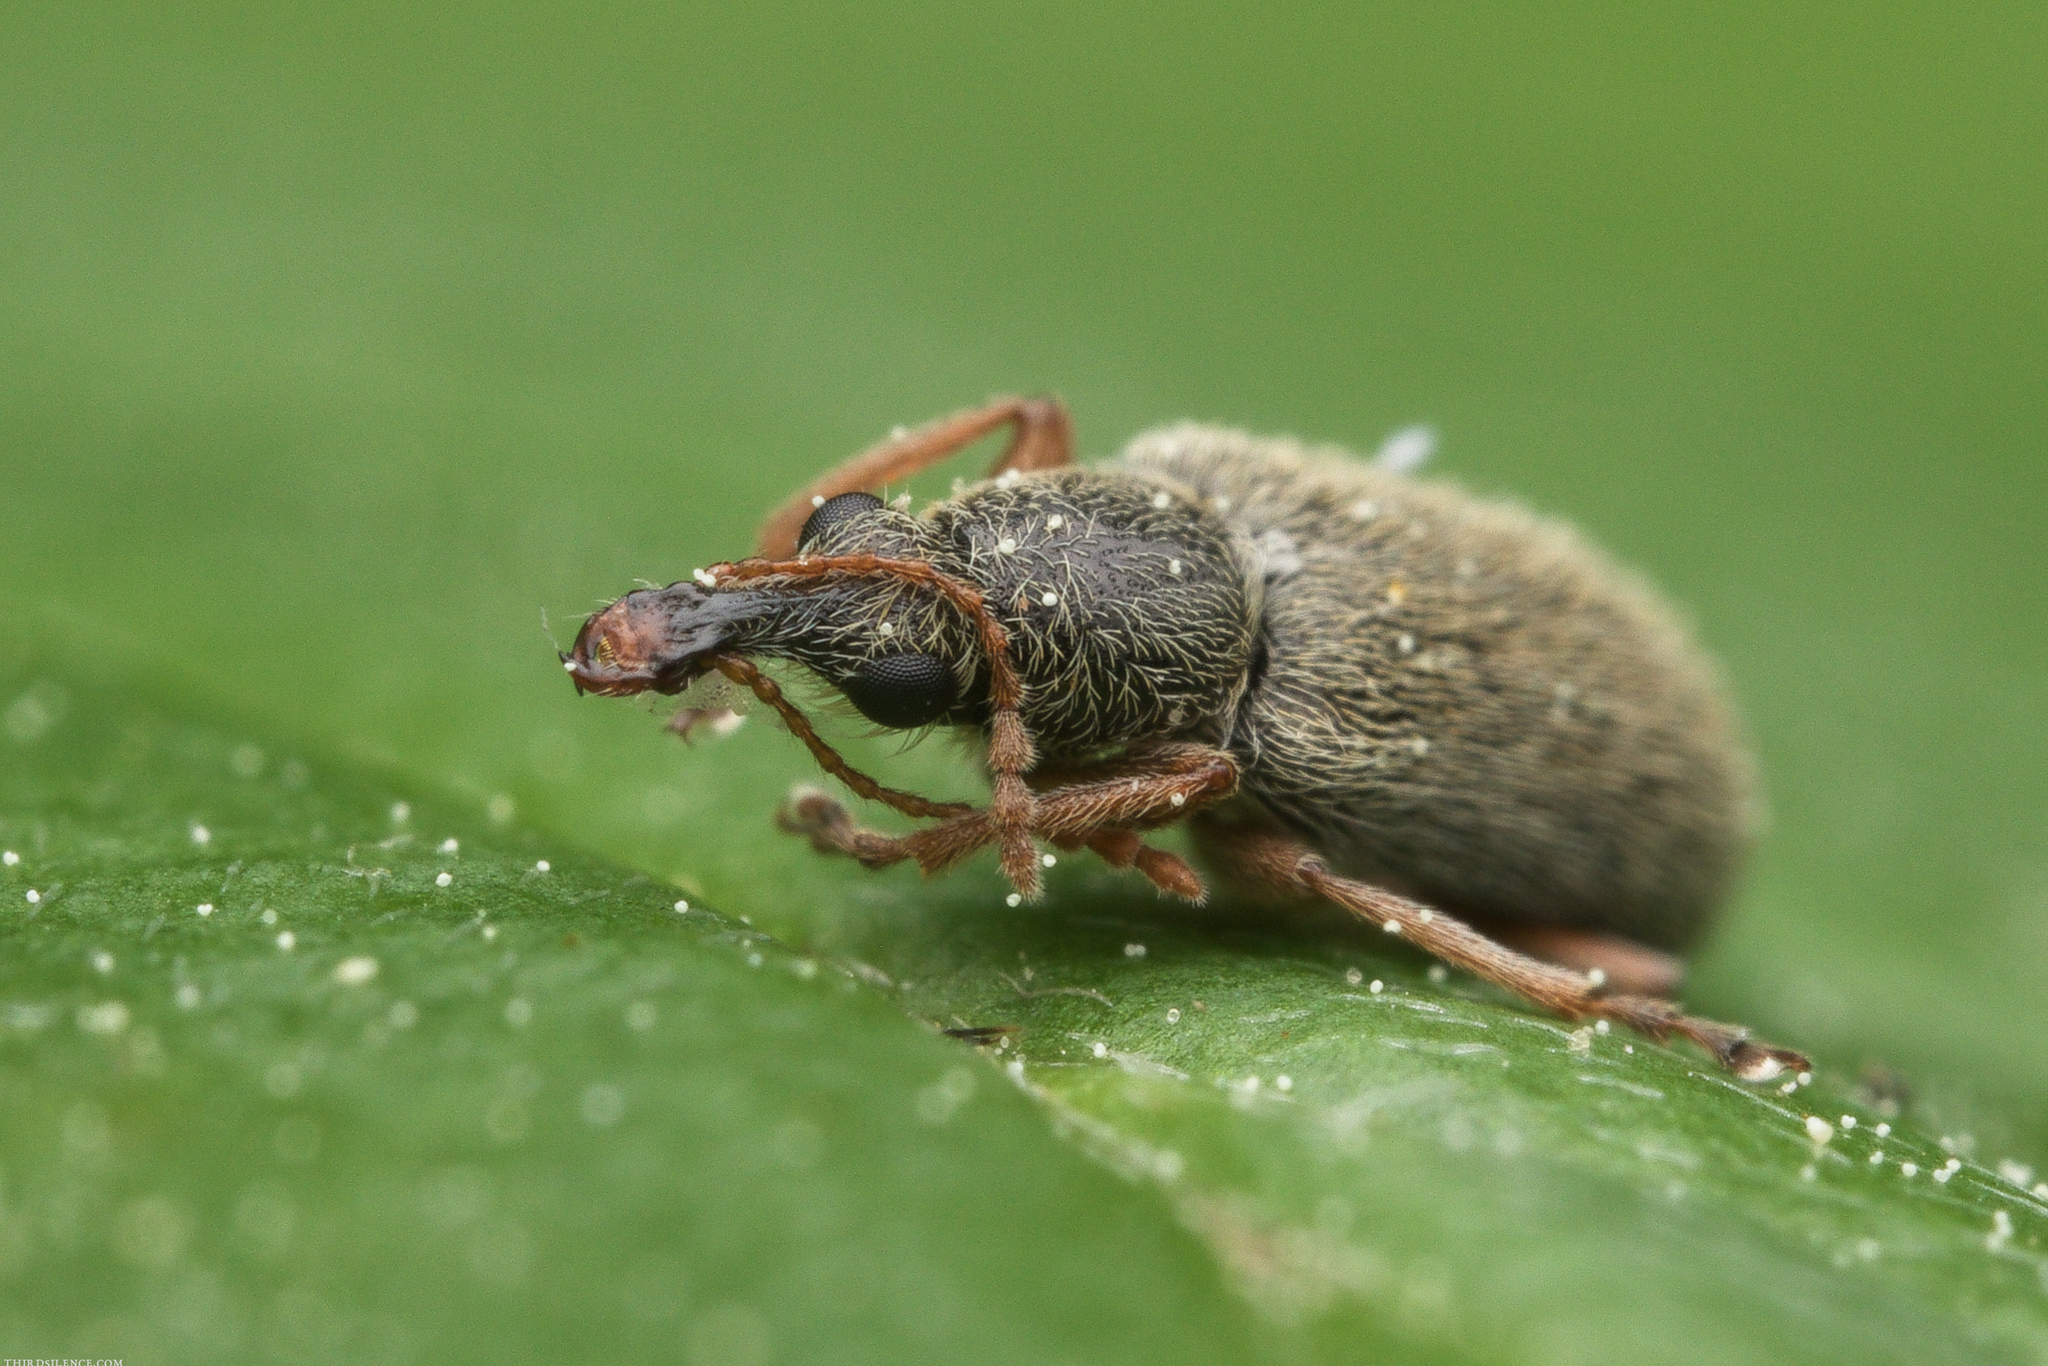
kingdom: Animalia
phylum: Arthropoda
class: Insecta
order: Coleoptera
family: Nemonychidae
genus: Cimberis
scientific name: Cimberis attelaboides
